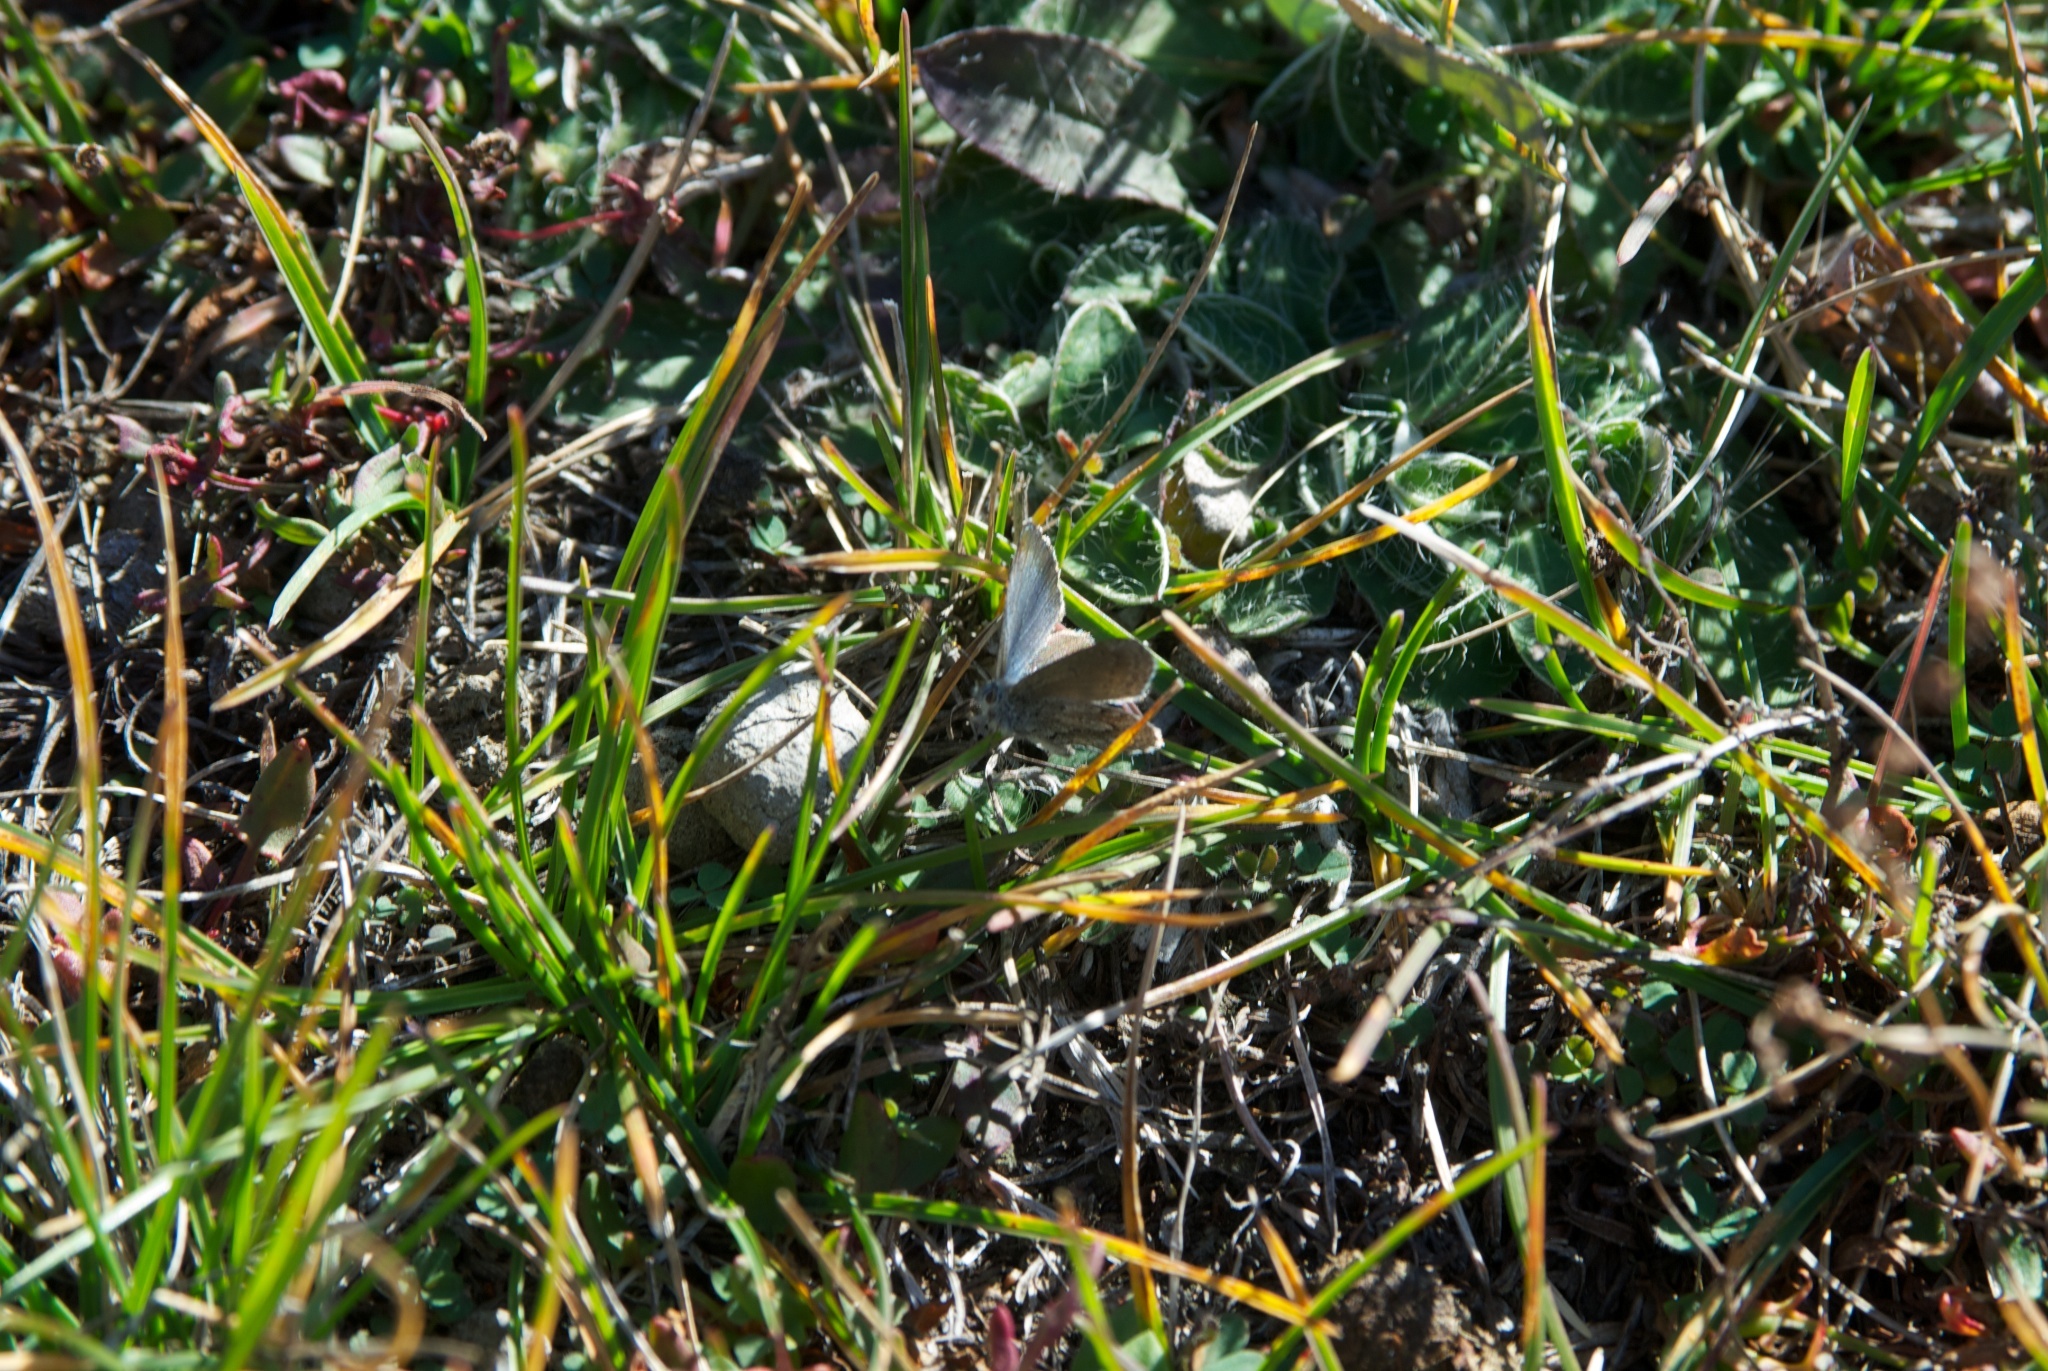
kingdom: Animalia
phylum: Arthropoda
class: Insecta
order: Lepidoptera
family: Lycaenidae
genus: Zizina
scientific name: Zizina oxleyi
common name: Southern blue
